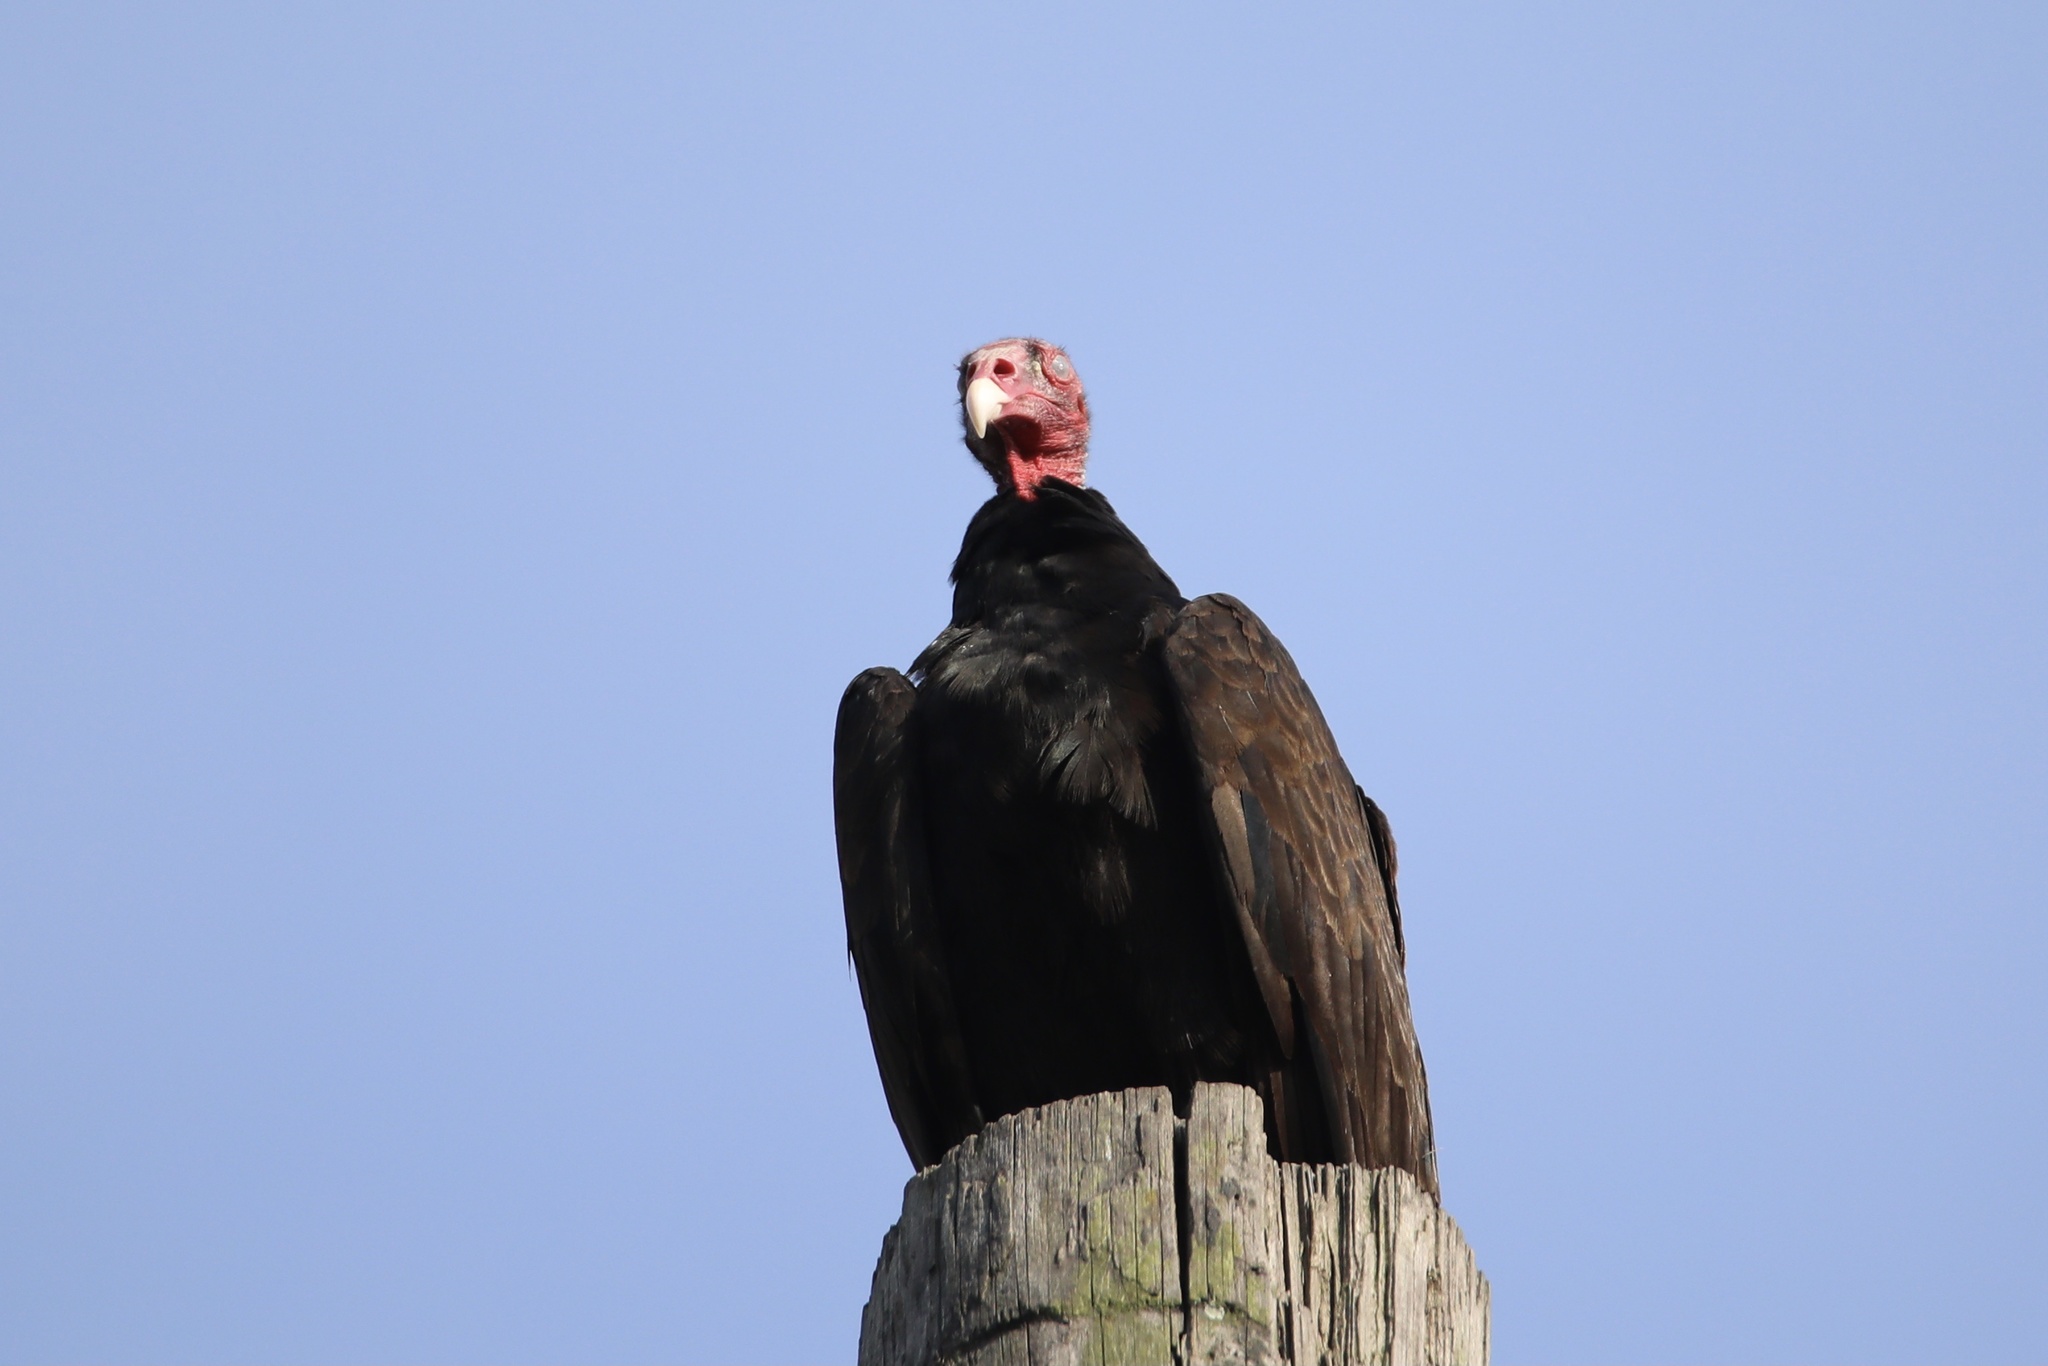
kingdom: Animalia
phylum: Chordata
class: Aves
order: Accipitriformes
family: Cathartidae
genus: Cathartes
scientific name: Cathartes aura
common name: Turkey vulture
